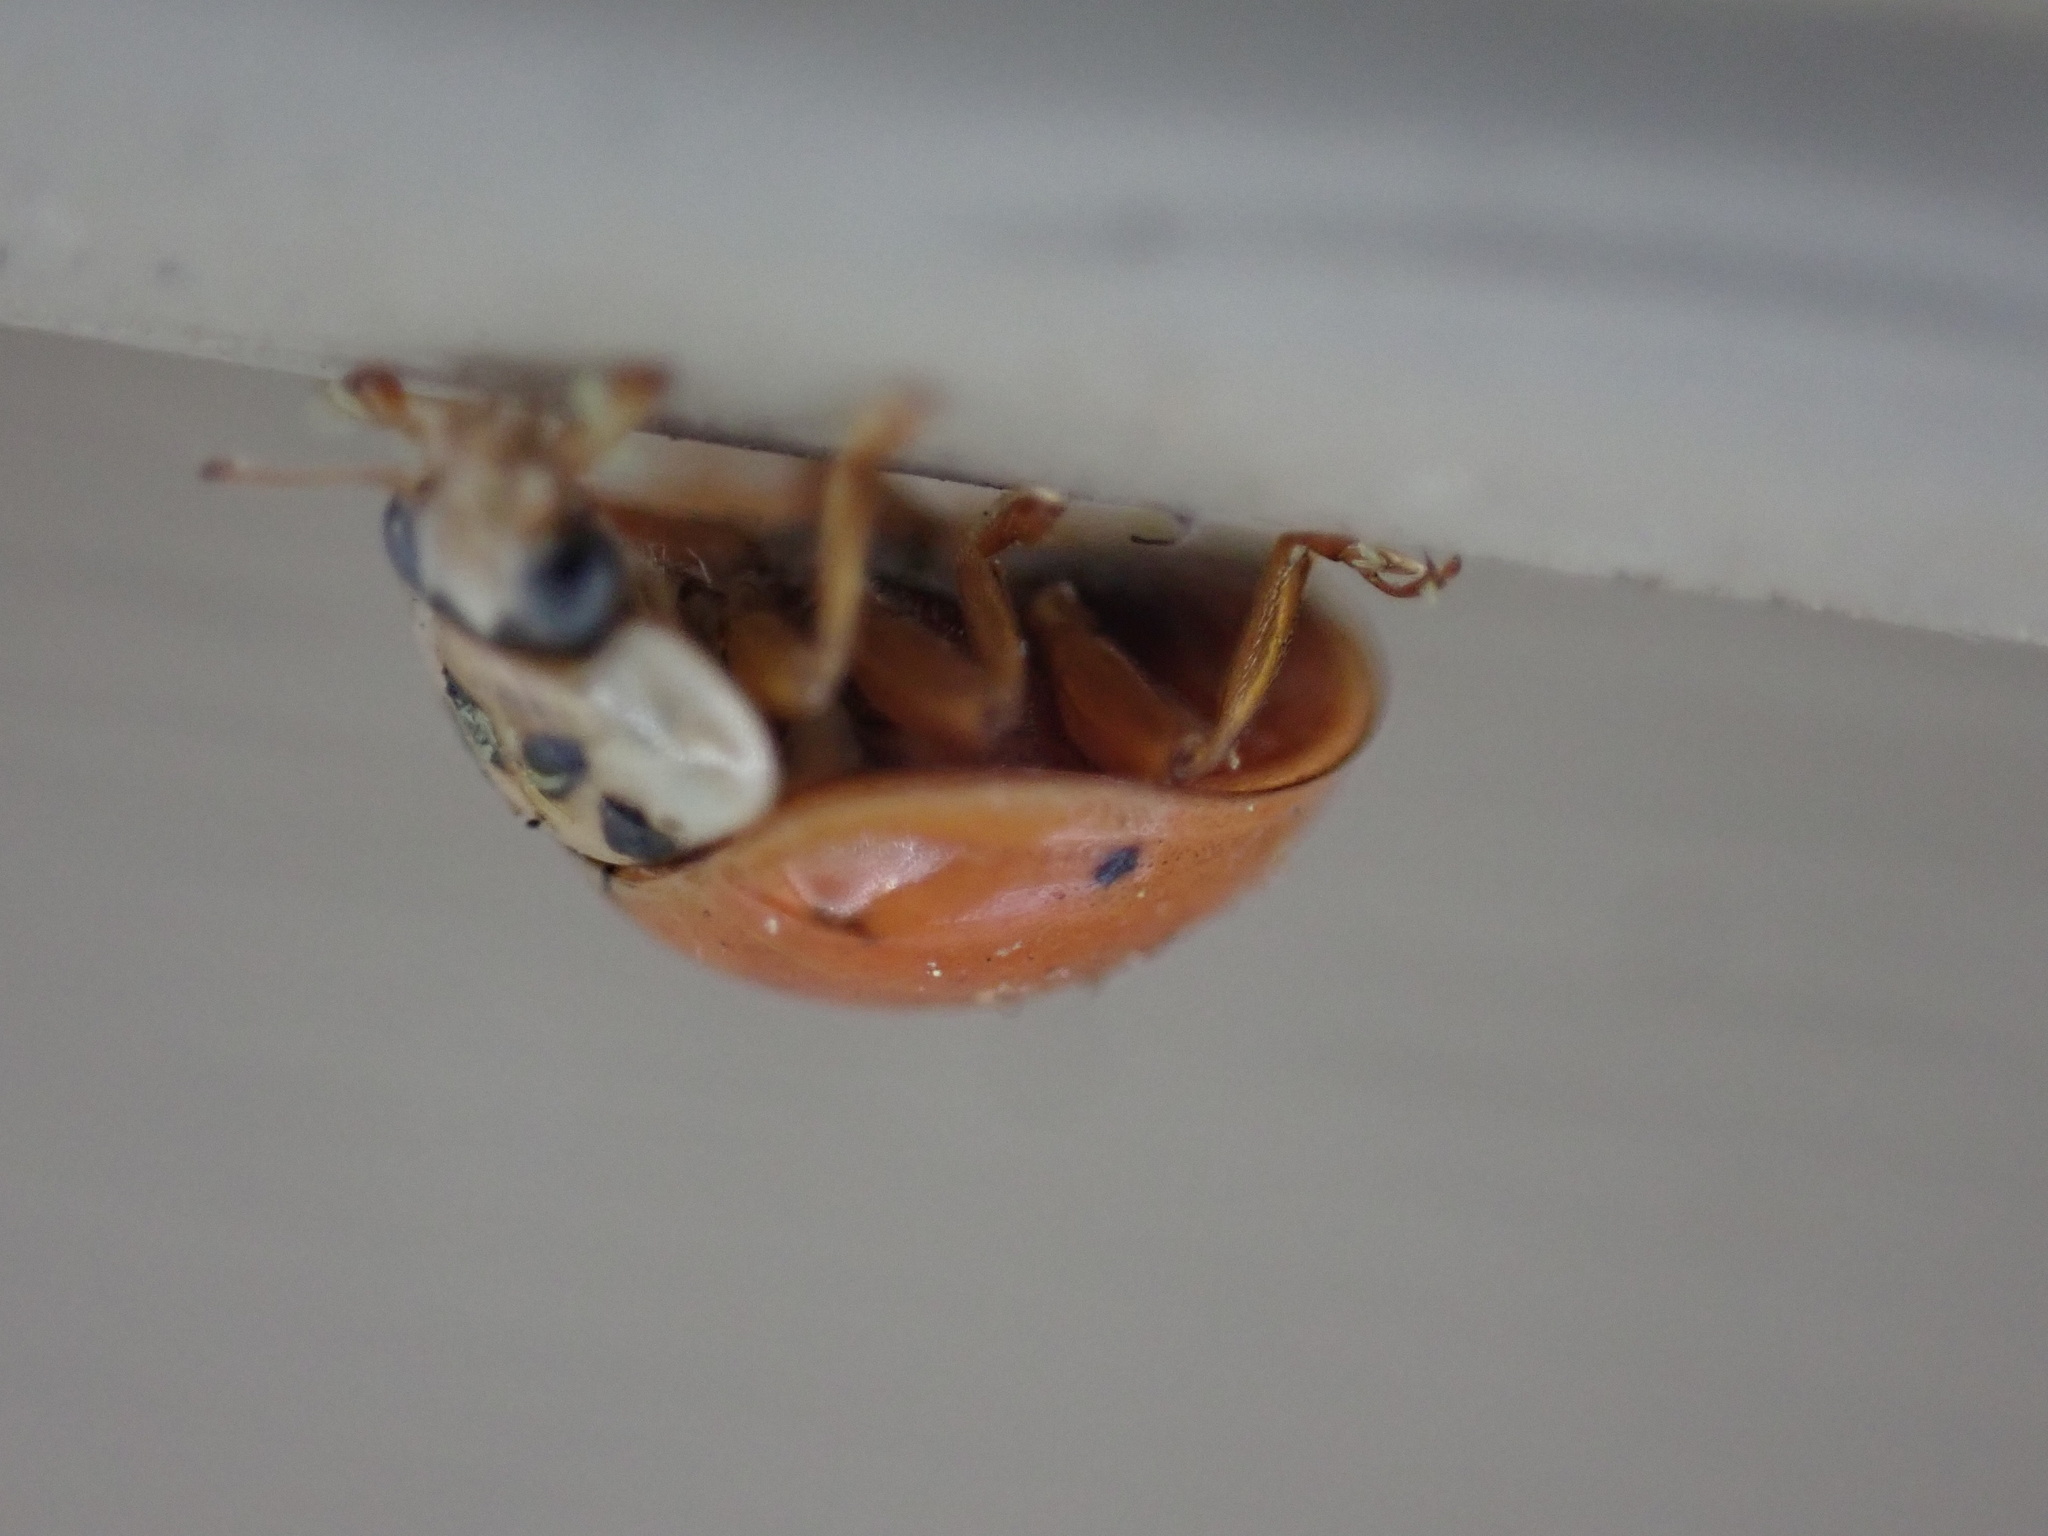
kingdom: Animalia
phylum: Arthropoda
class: Insecta
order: Coleoptera
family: Coccinellidae
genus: Harmonia
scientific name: Harmonia axyridis
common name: Harlequin ladybird
